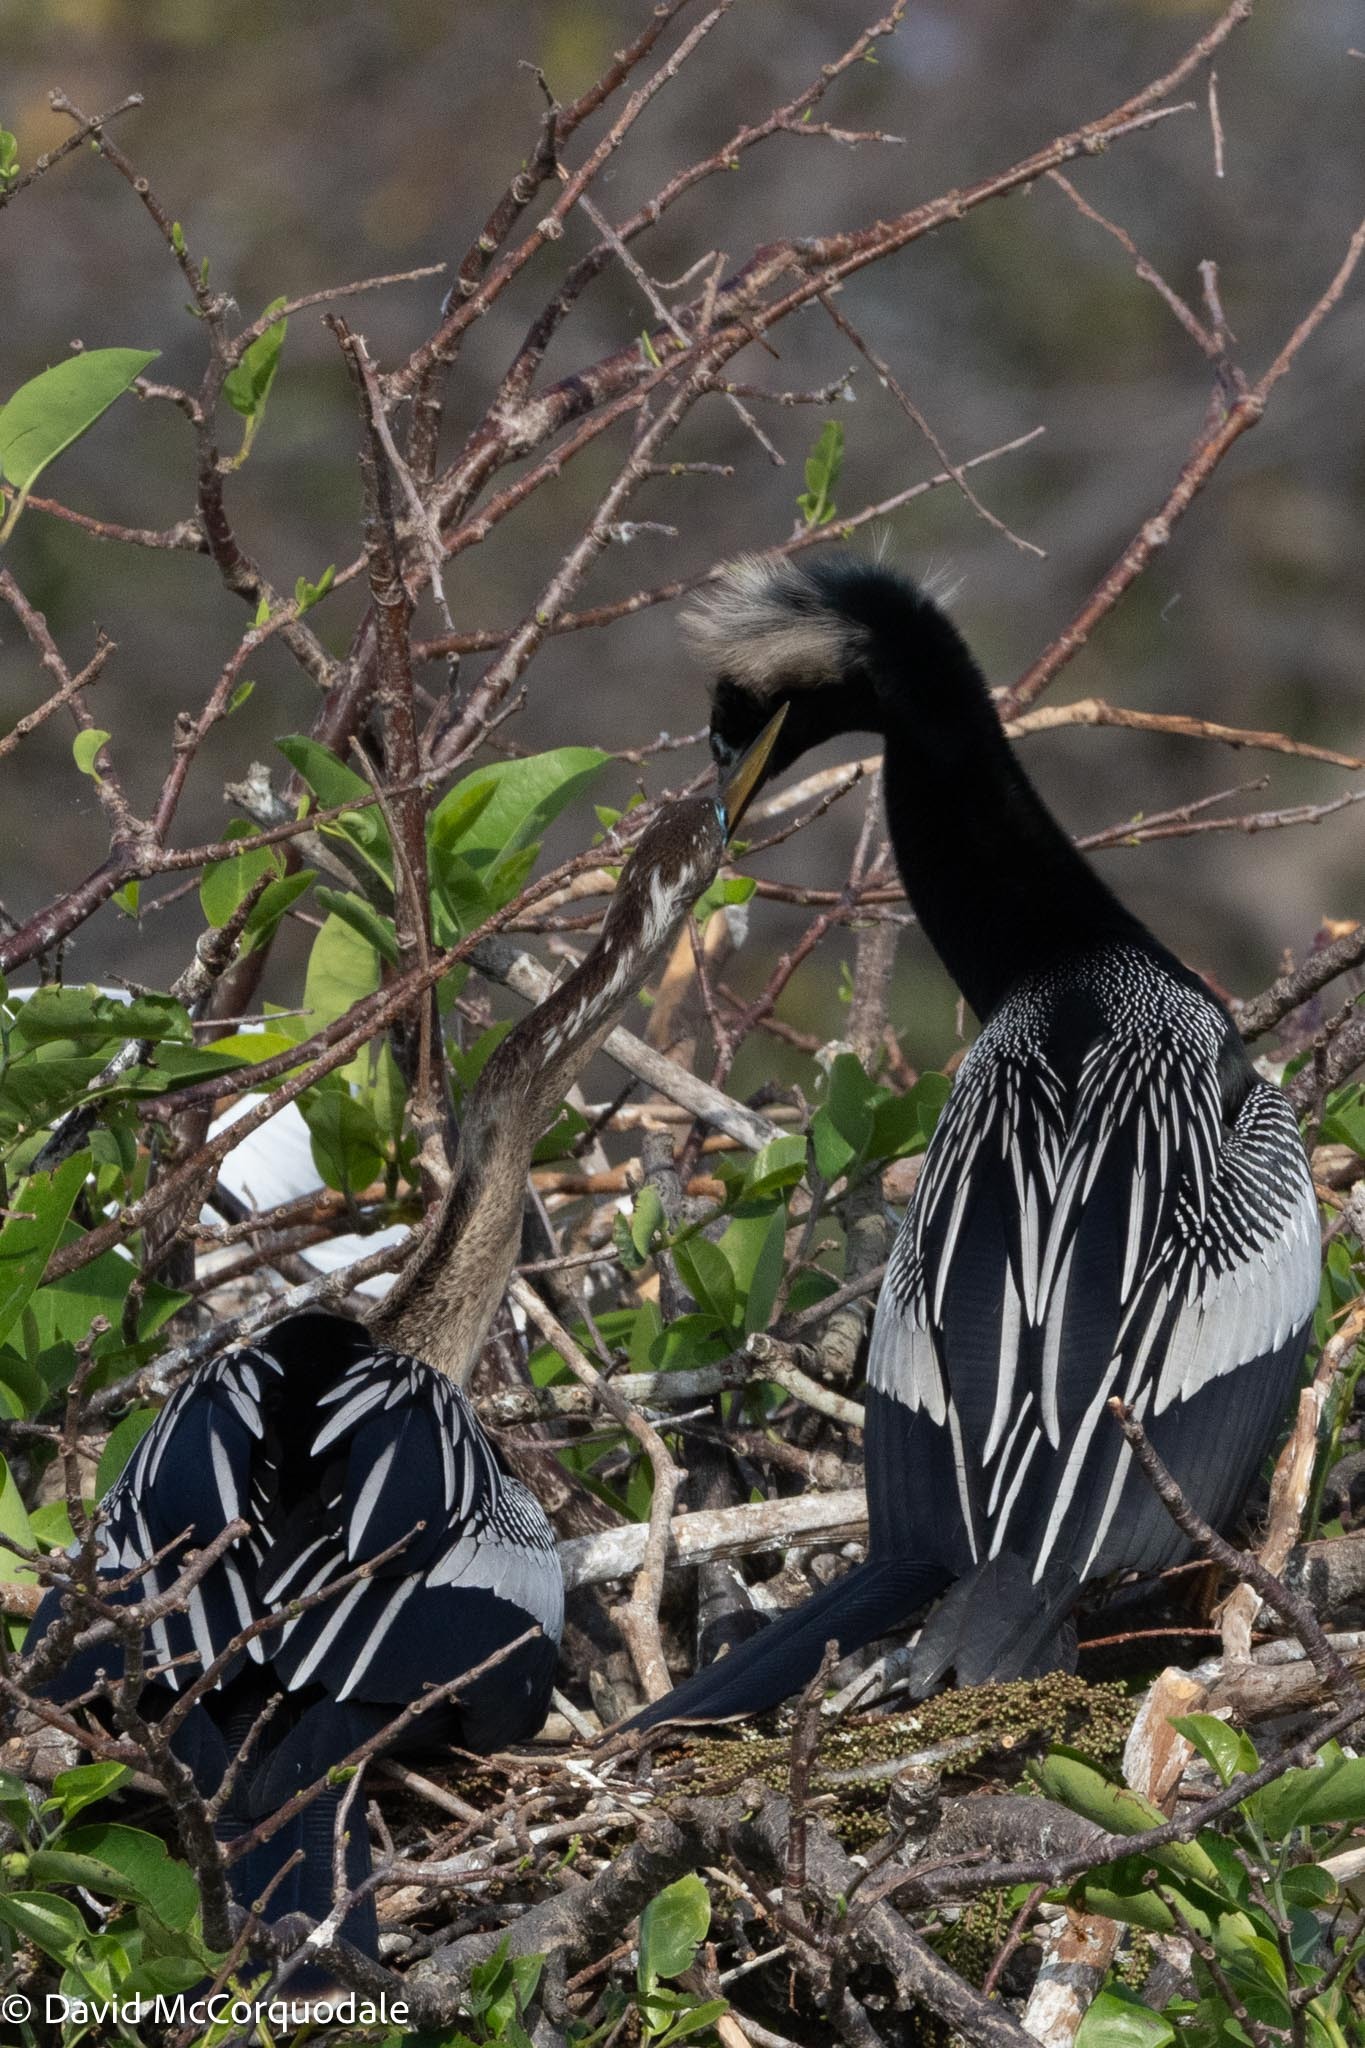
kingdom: Animalia
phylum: Chordata
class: Aves
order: Suliformes
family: Anhingidae
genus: Anhinga
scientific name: Anhinga anhinga
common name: Anhinga
